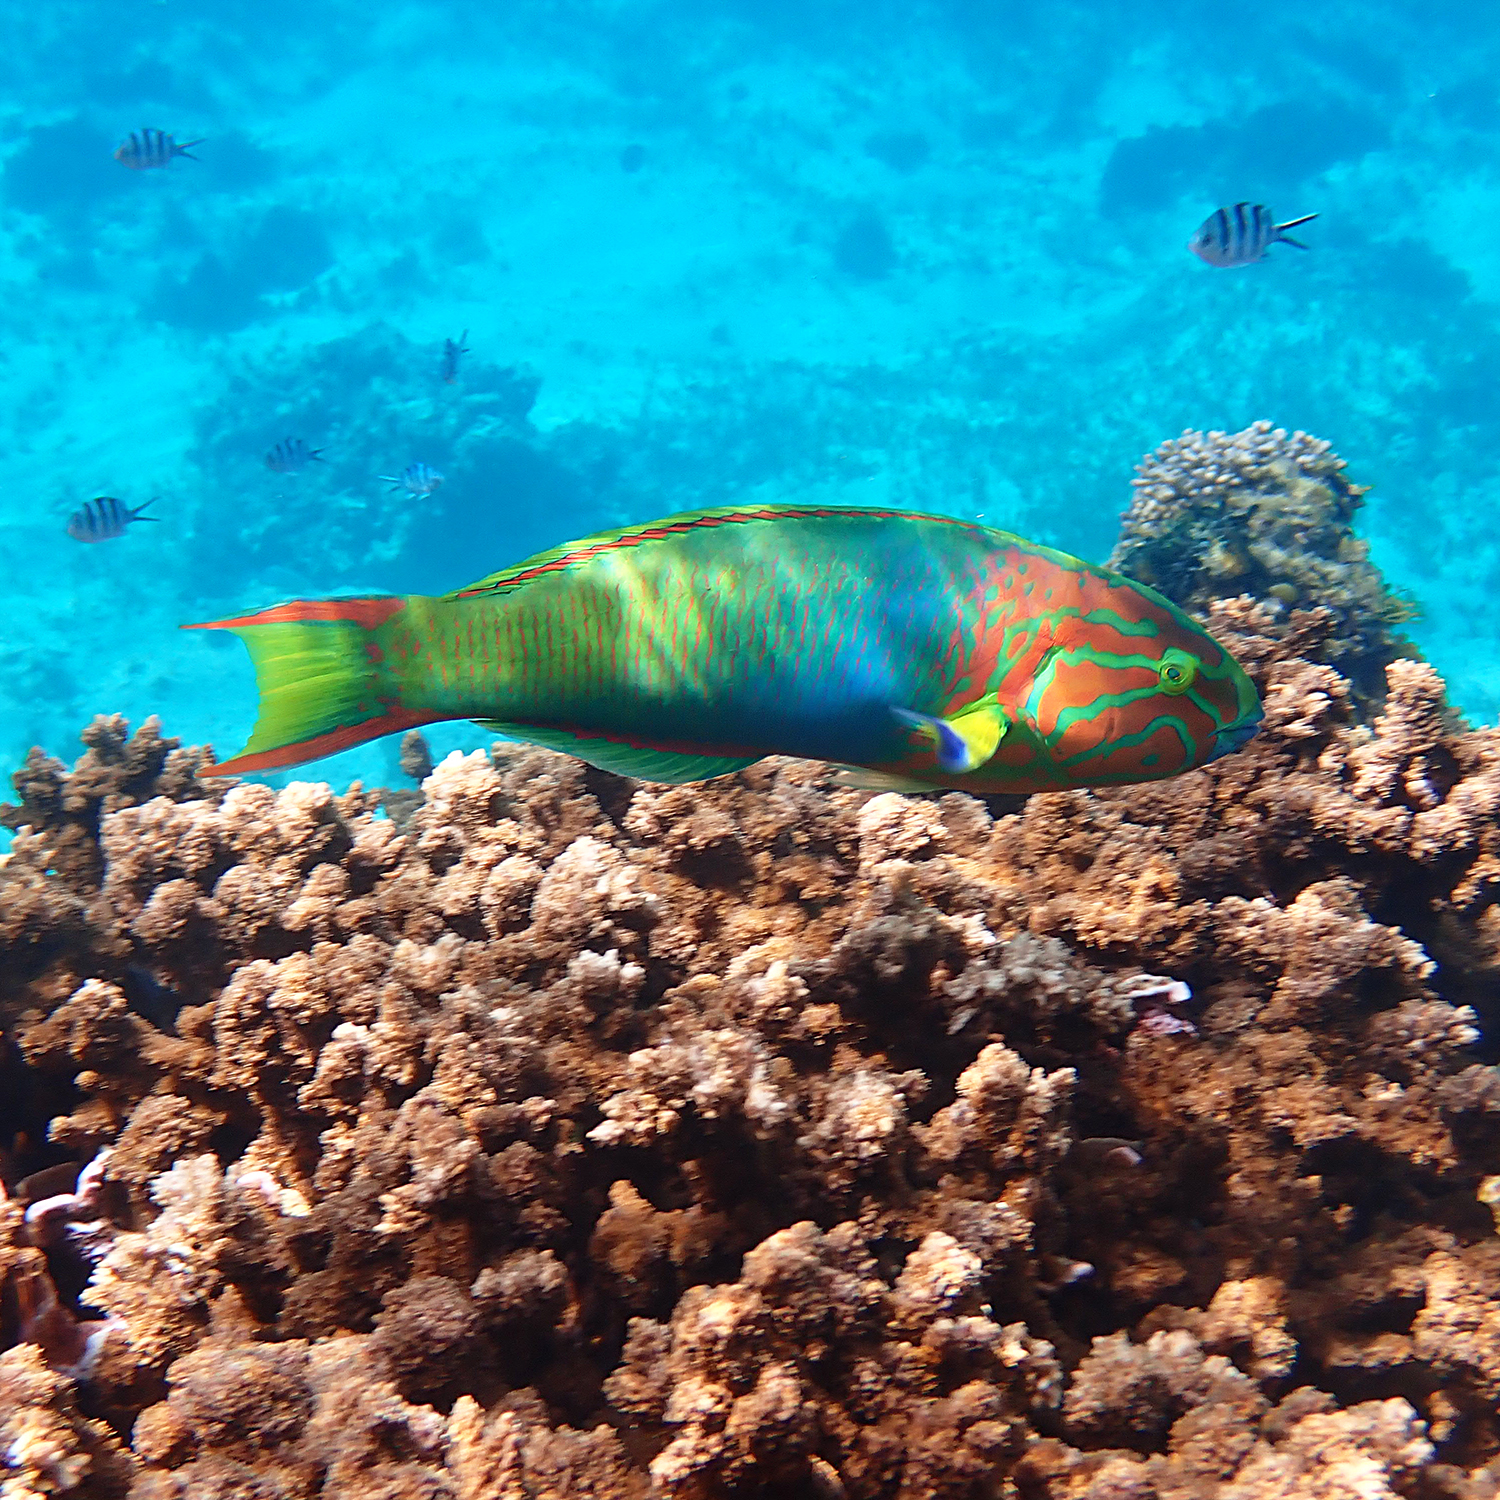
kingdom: Animalia
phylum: Chordata
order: Perciformes
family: Labridae
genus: Thalassoma
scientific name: Thalassoma lutescens
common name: Green moon wrasse
